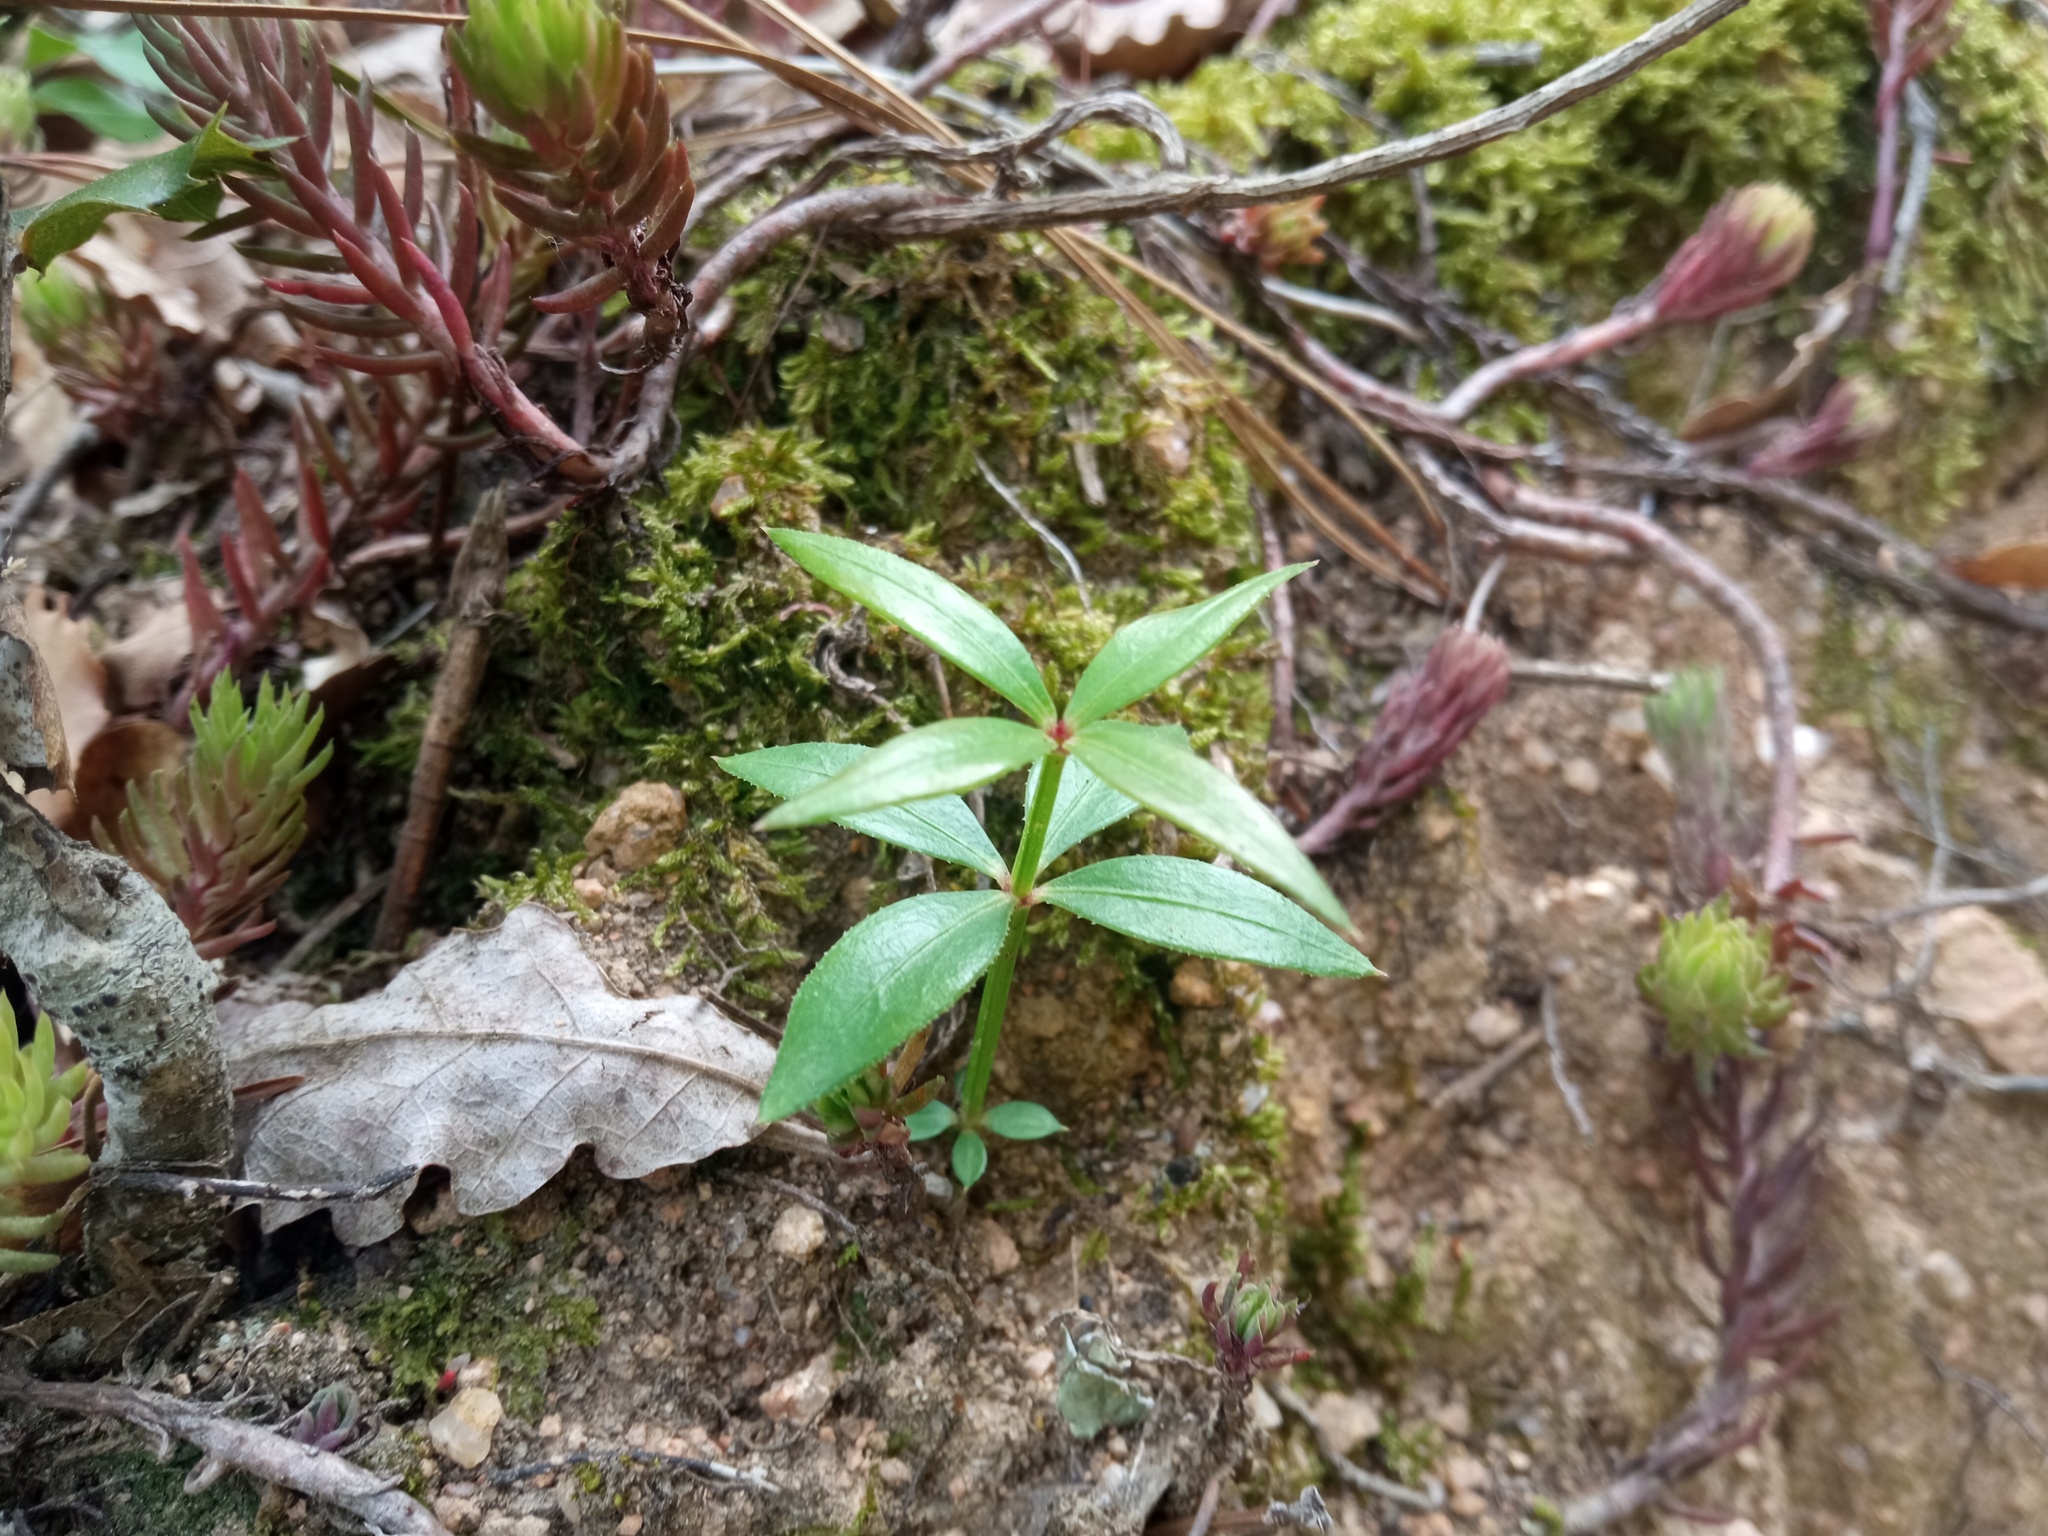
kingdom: Plantae
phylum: Tracheophyta
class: Magnoliopsida
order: Gentianales
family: Rubiaceae
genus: Rubia
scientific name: Rubia peregrina
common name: Wild madder
